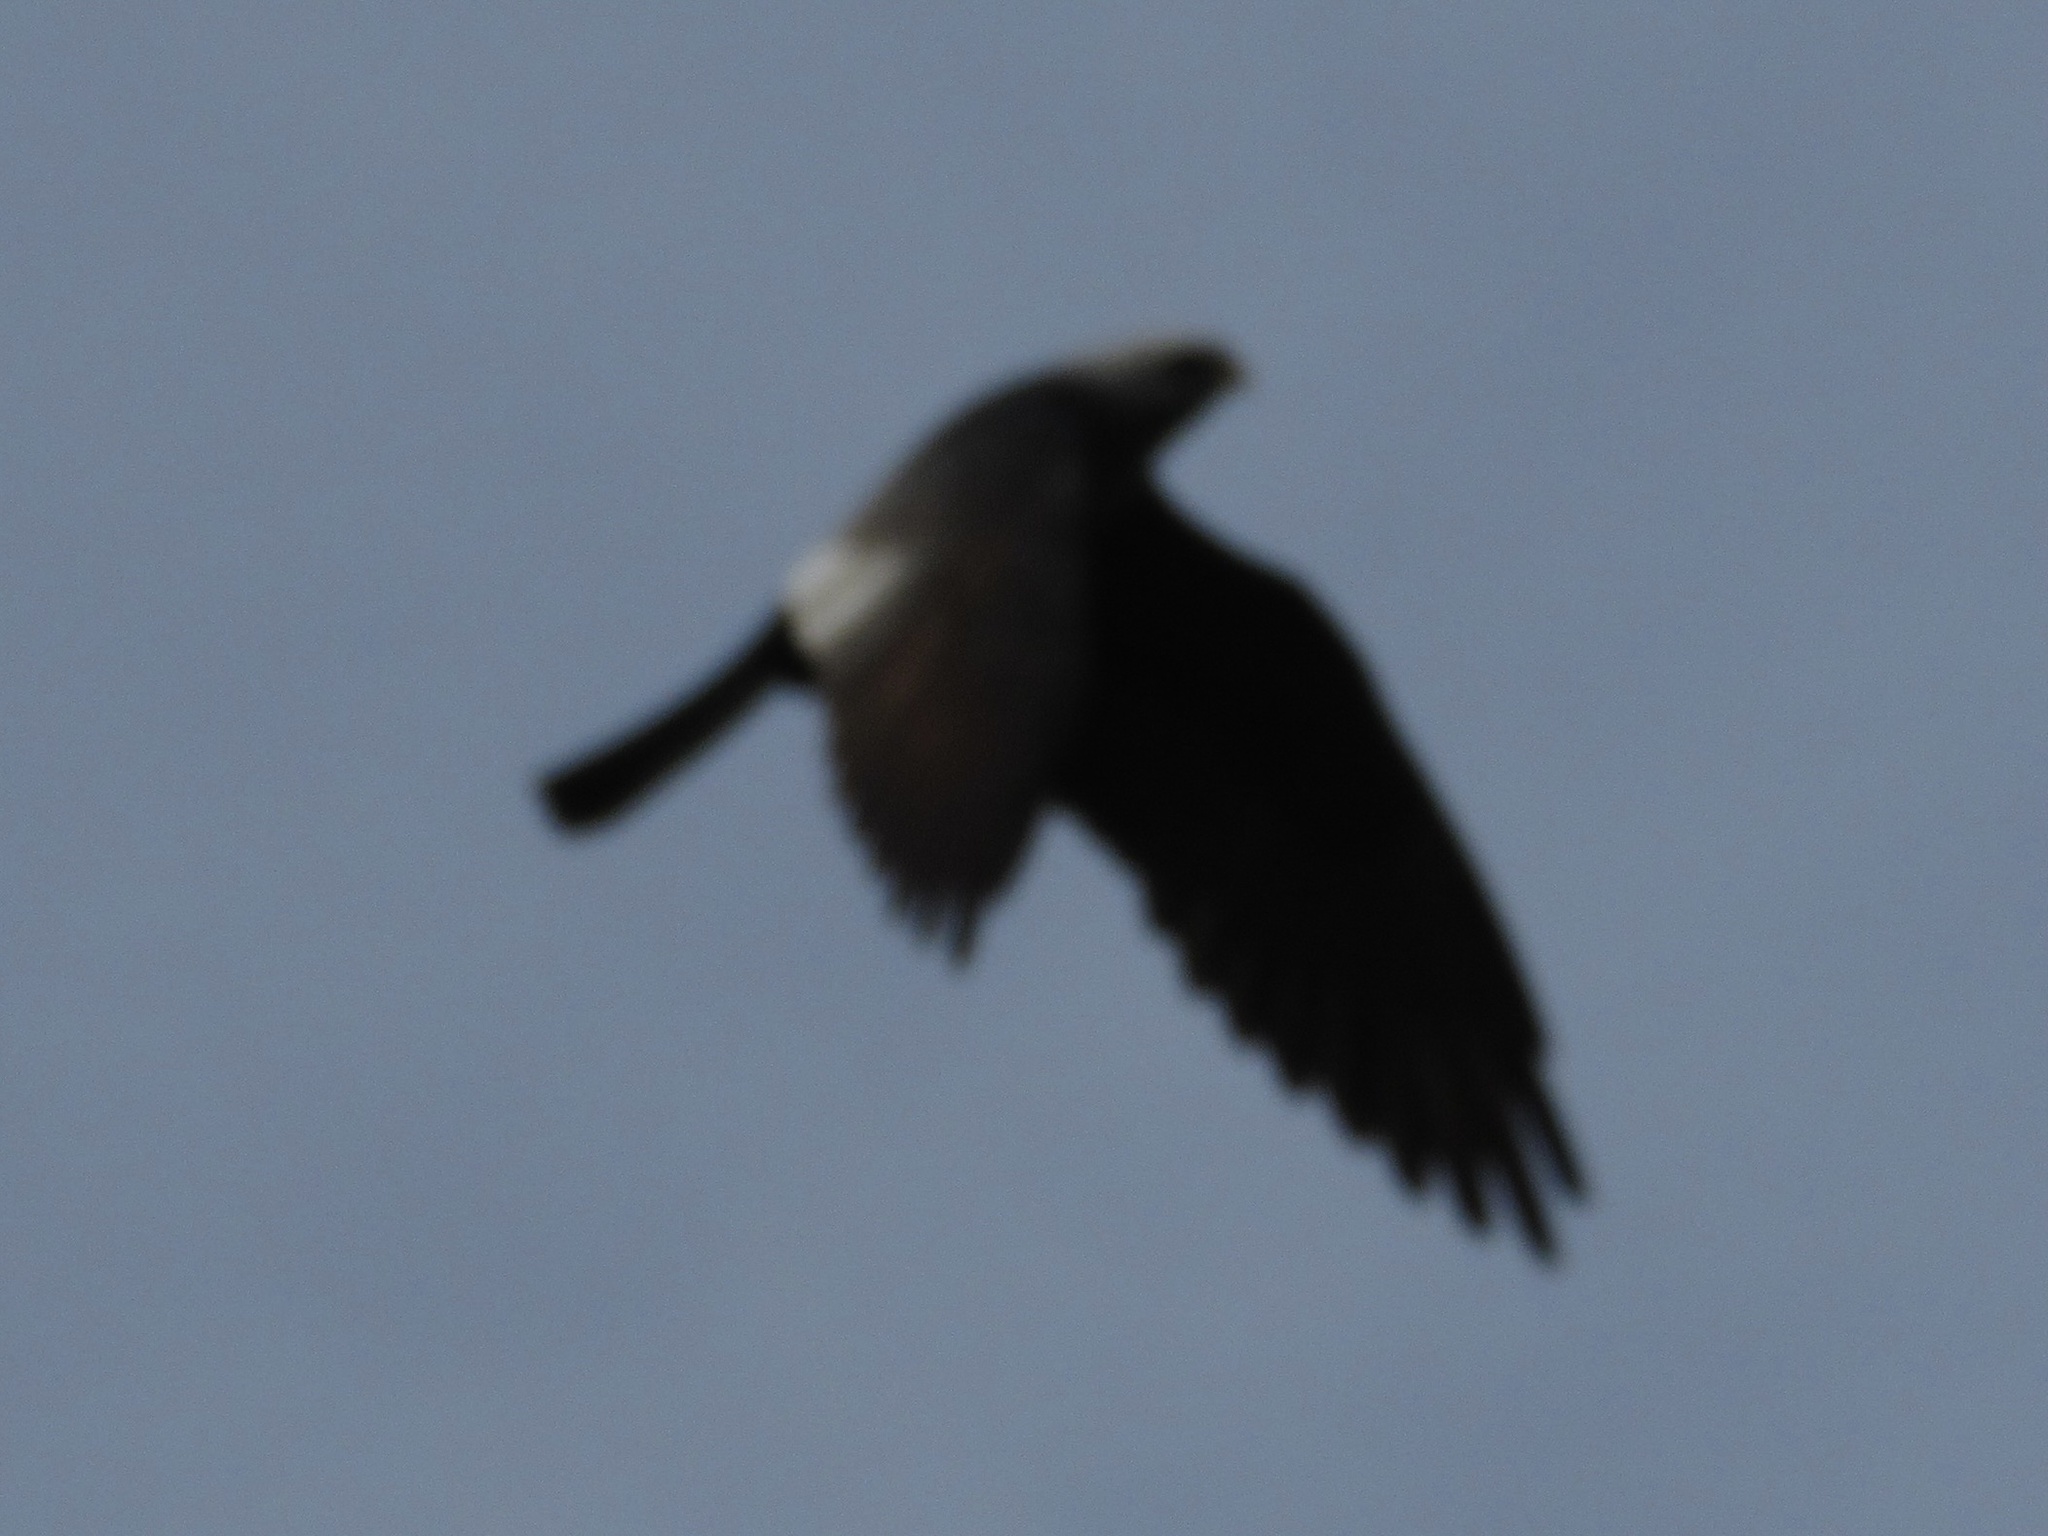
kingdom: Animalia
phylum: Chordata
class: Aves
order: Accipitriformes
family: Accipitridae
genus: Ictinia
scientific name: Ictinia mississippiensis
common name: Mississippi kite
